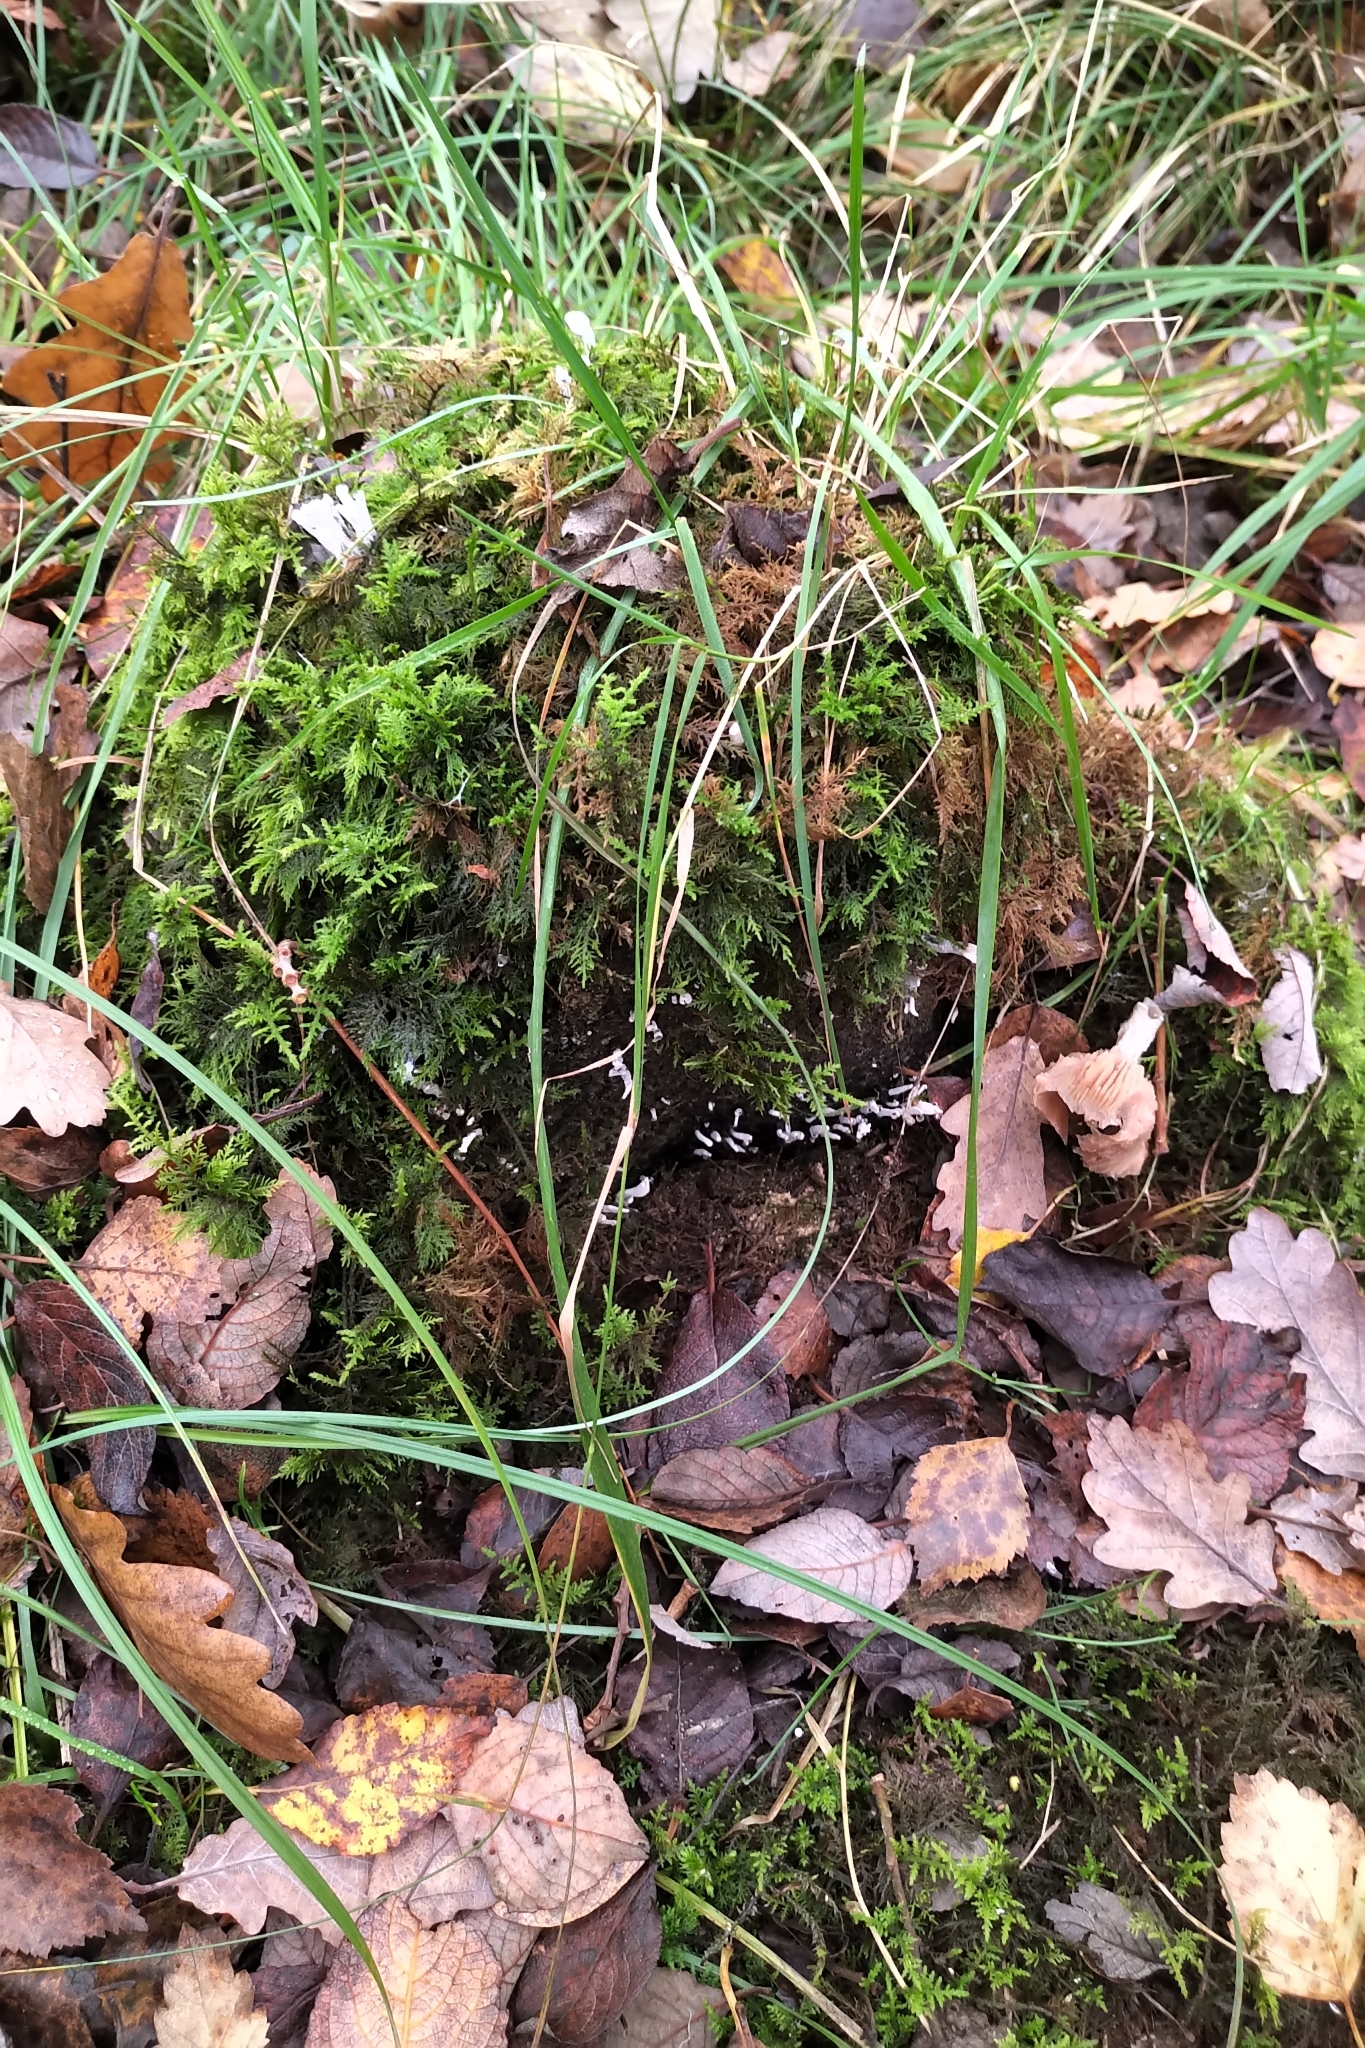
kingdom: Fungi
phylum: Ascomycota
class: Sordariomycetes
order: Xylariales
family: Xylariaceae
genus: Xylaria
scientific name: Xylaria hypoxylon
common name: Candle-snuff fungus
